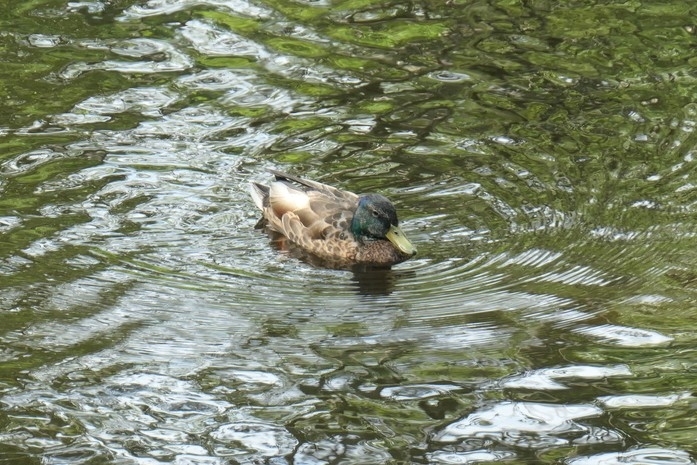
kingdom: Animalia
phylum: Chordata
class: Aves
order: Anseriformes
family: Anatidae
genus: Anas
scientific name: Anas platyrhynchos
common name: Mallard
